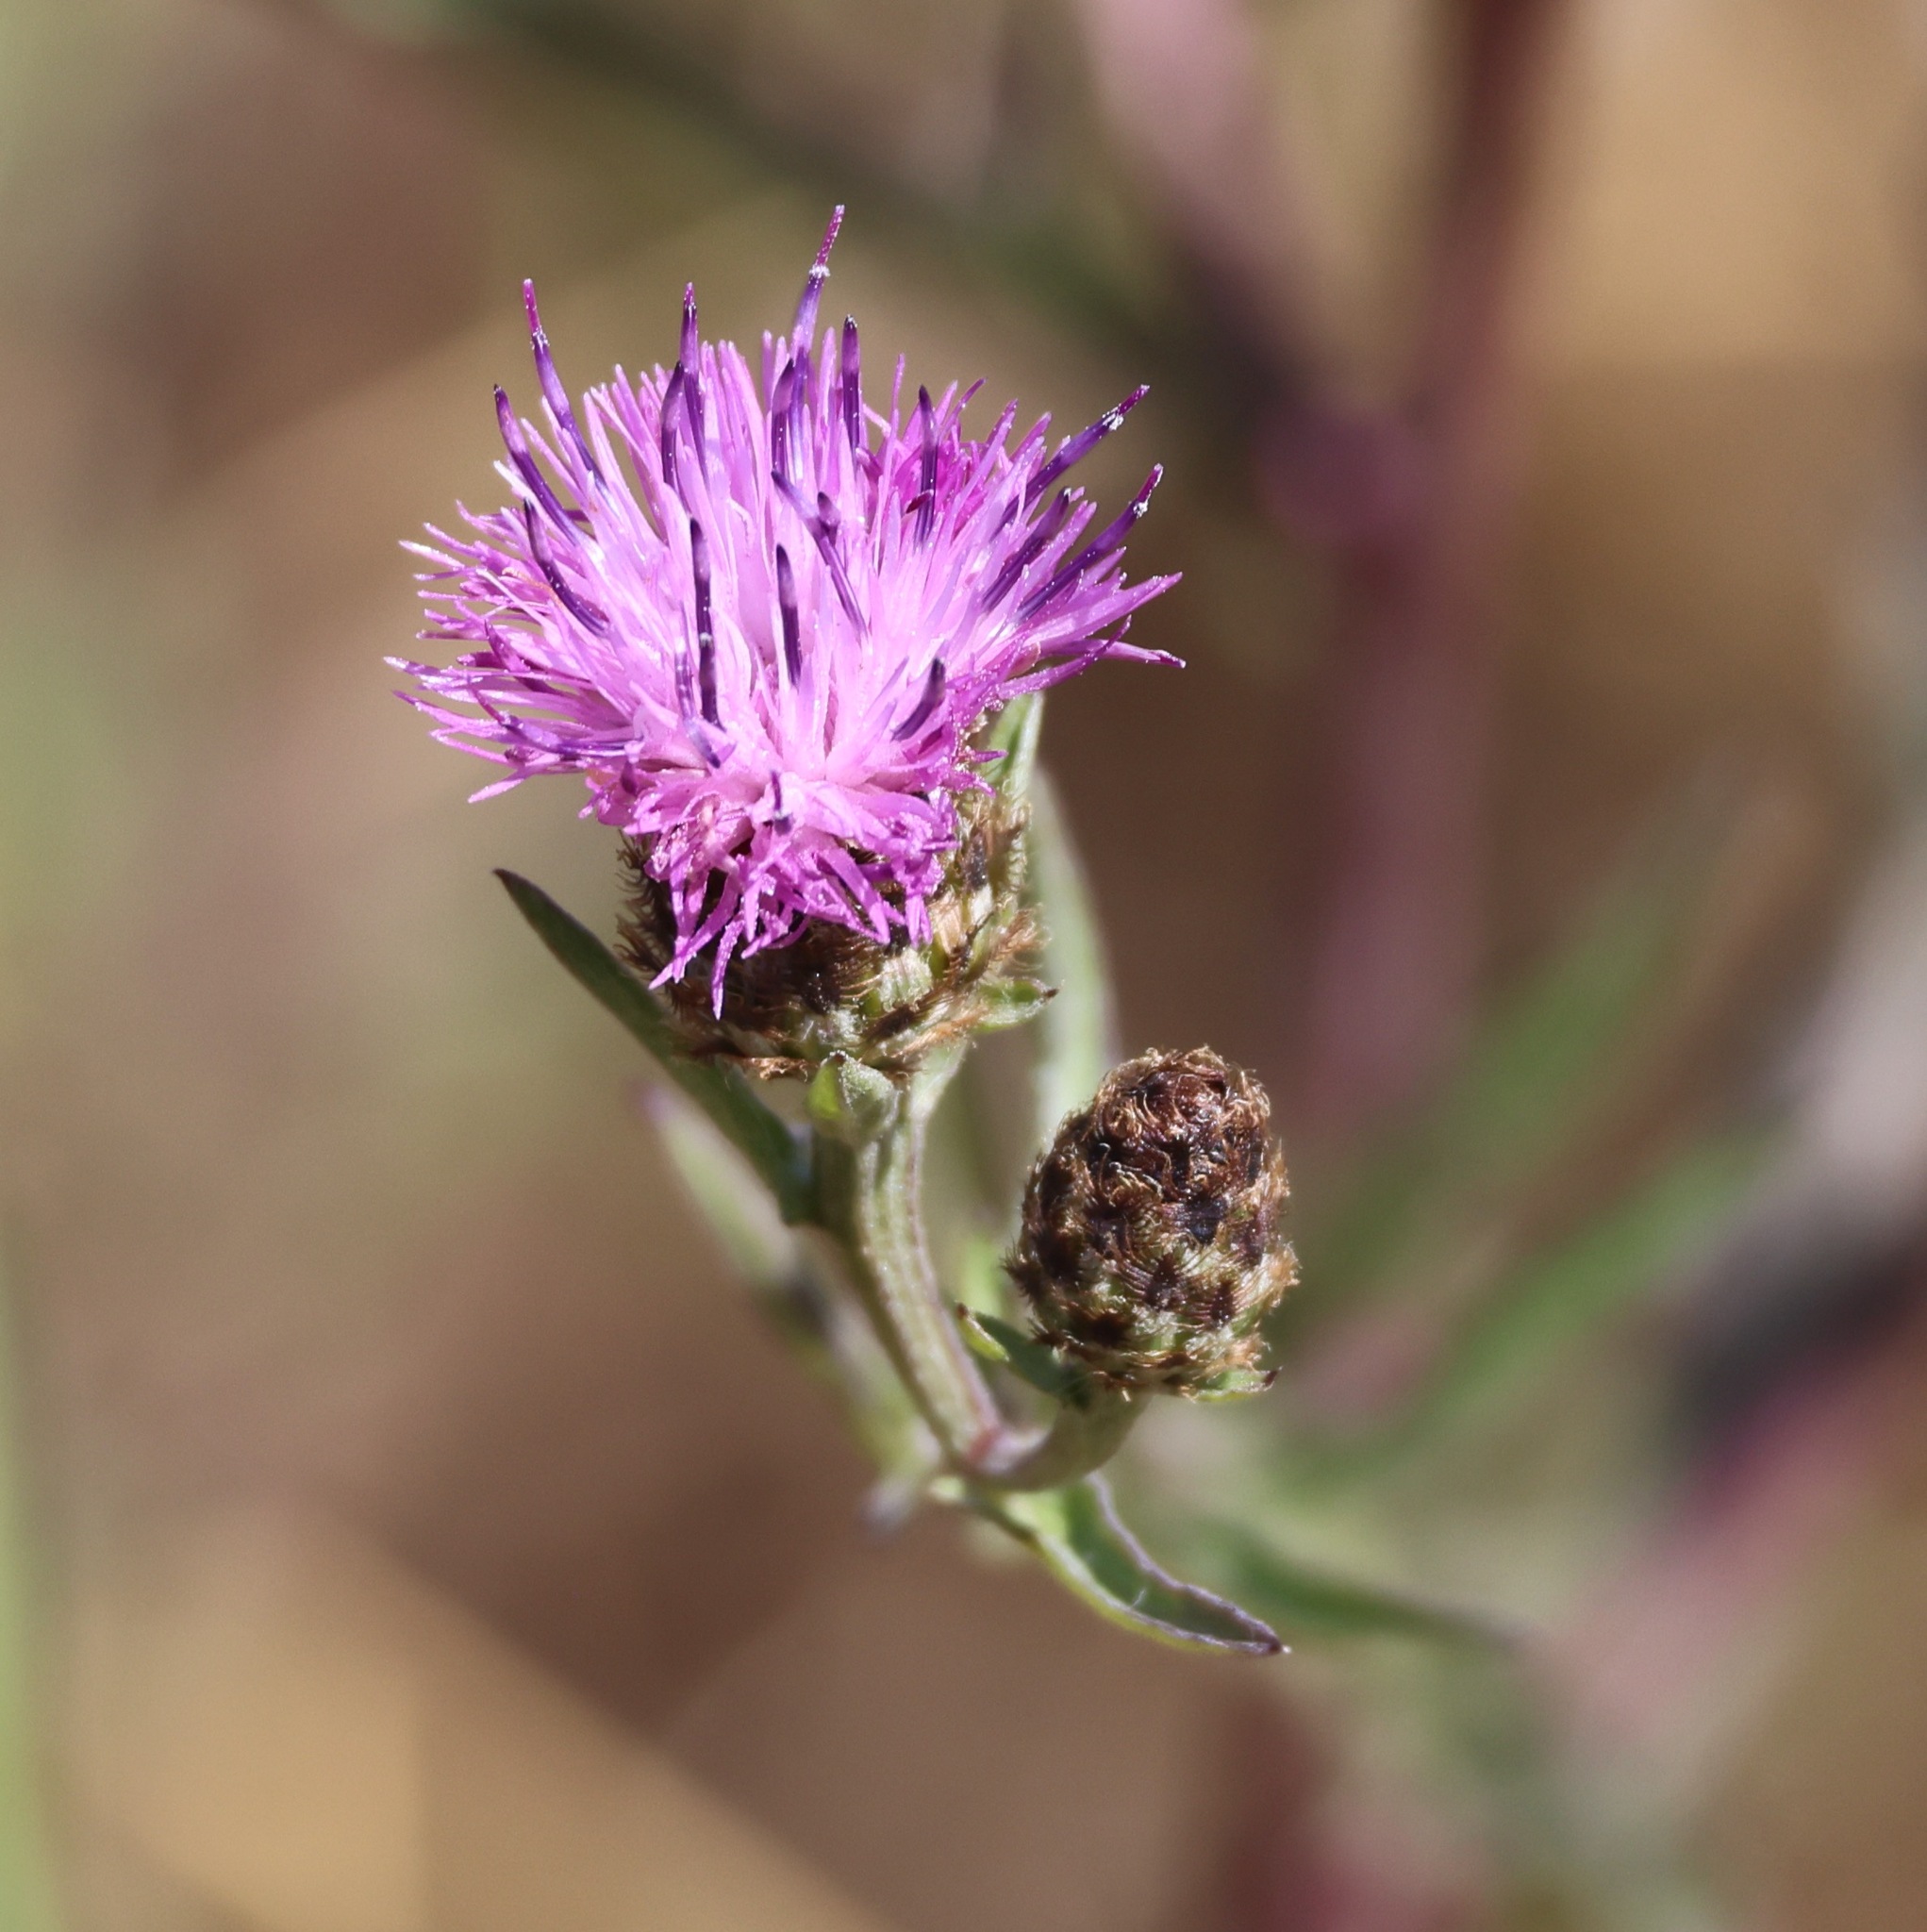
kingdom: Plantae
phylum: Tracheophyta
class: Magnoliopsida
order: Asterales
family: Asteraceae
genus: Centaurea
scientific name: Centaurea nigra
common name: Lesser knapweed
